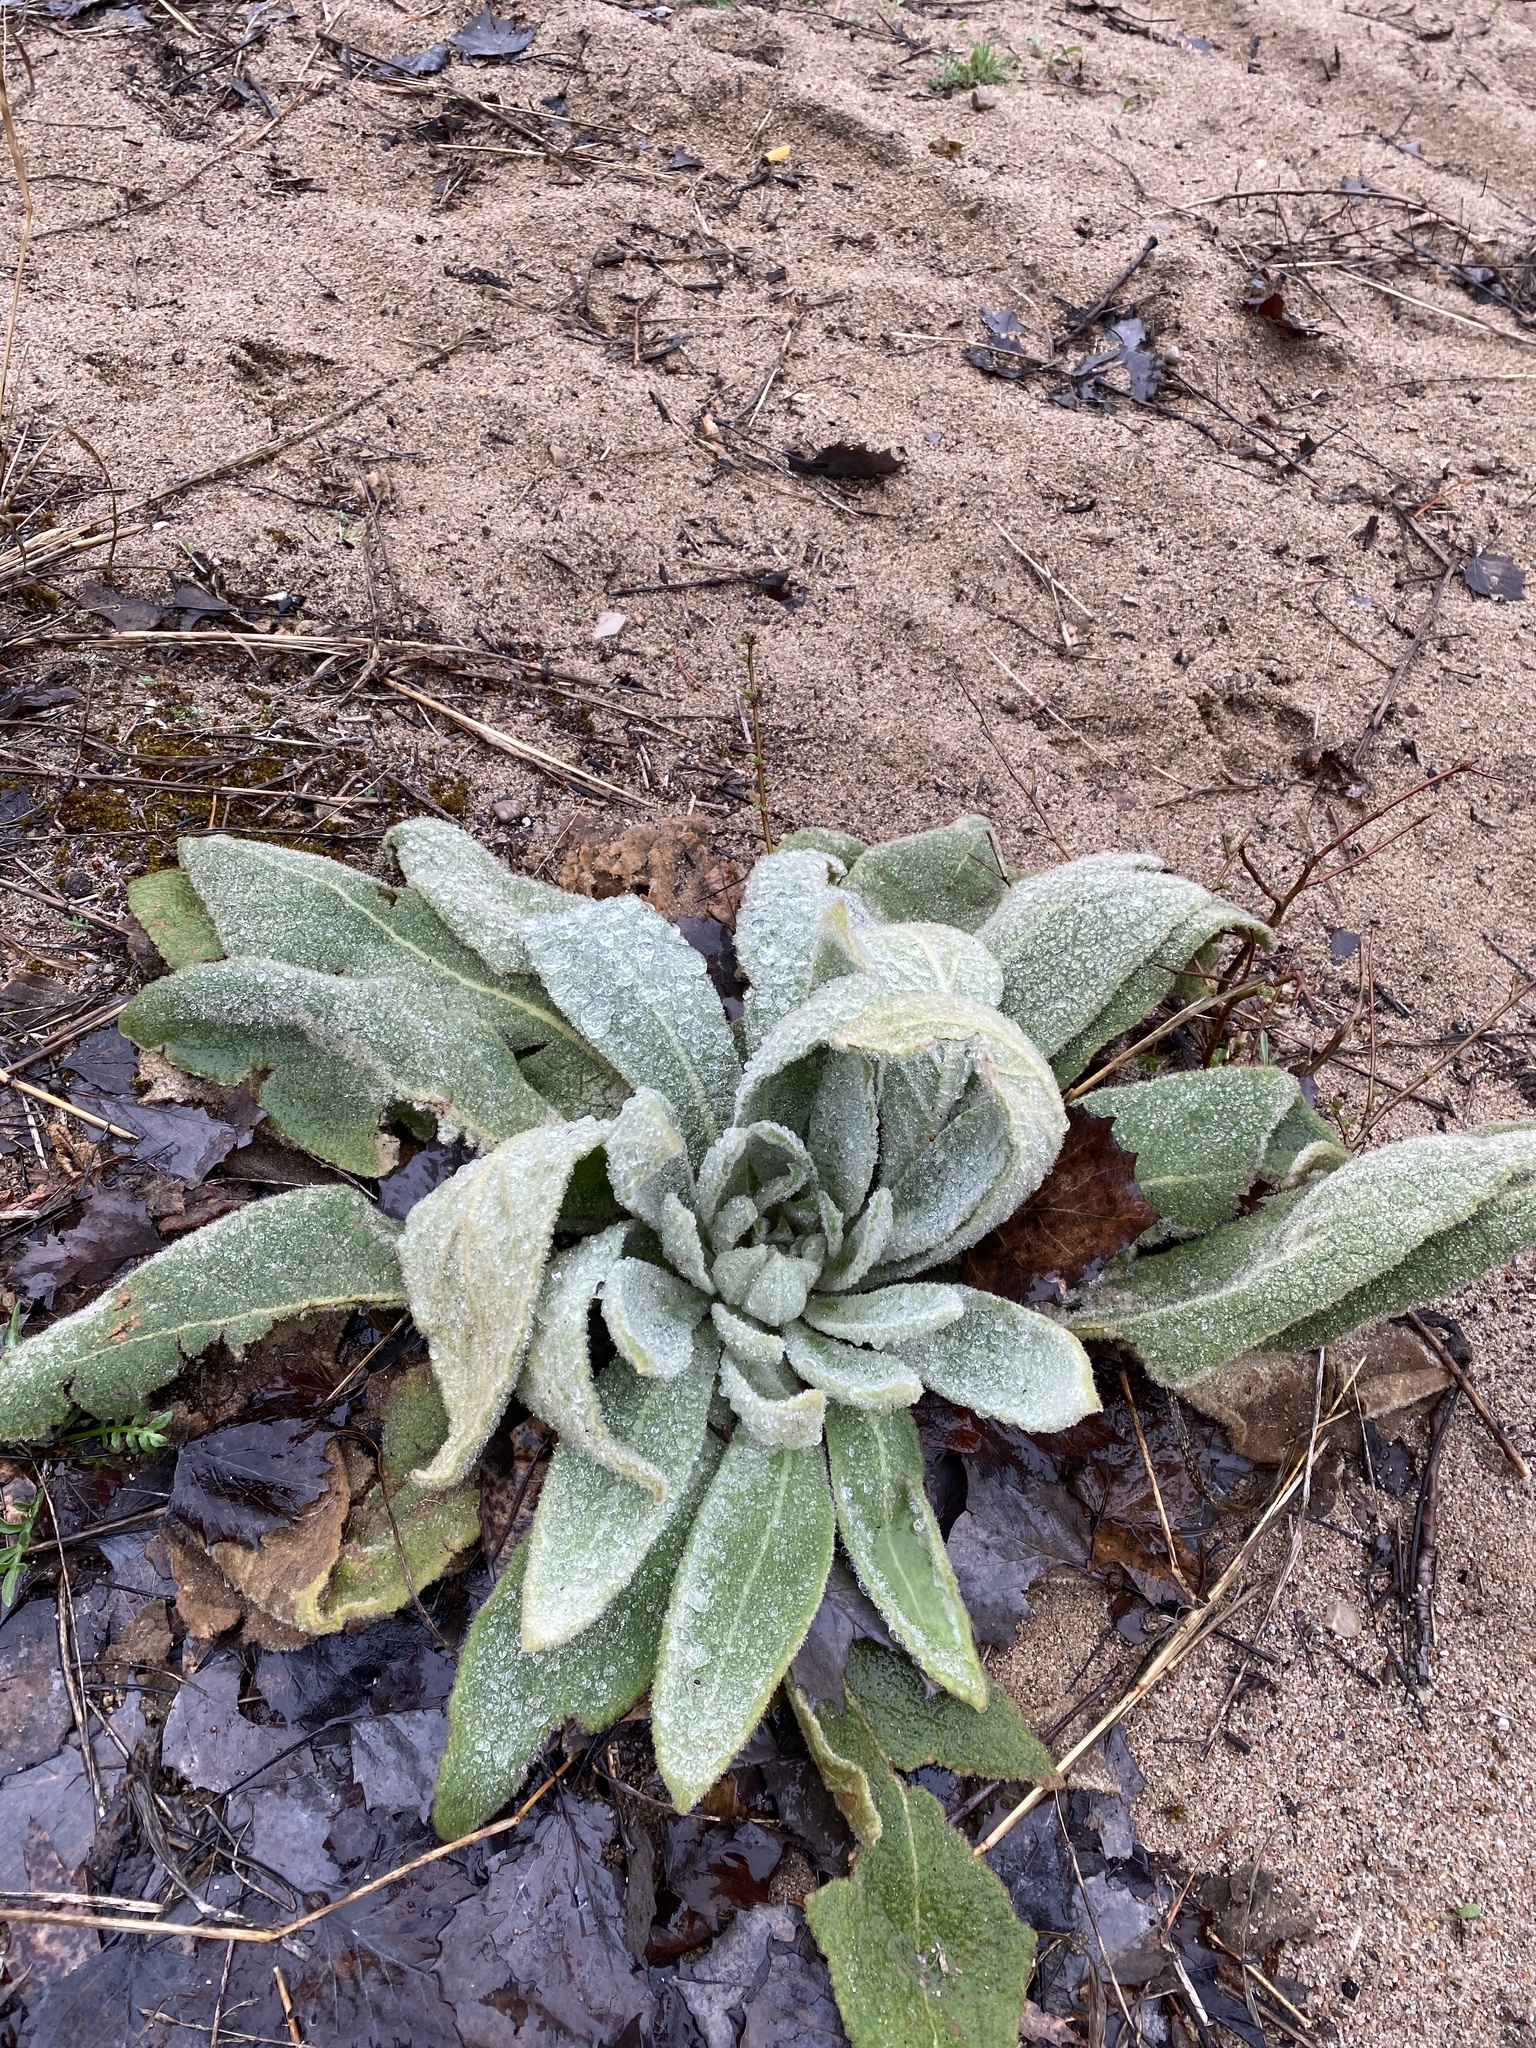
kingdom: Plantae
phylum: Tracheophyta
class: Magnoliopsida
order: Lamiales
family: Scrophulariaceae
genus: Verbascum
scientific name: Verbascum thapsus
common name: Common mullein
